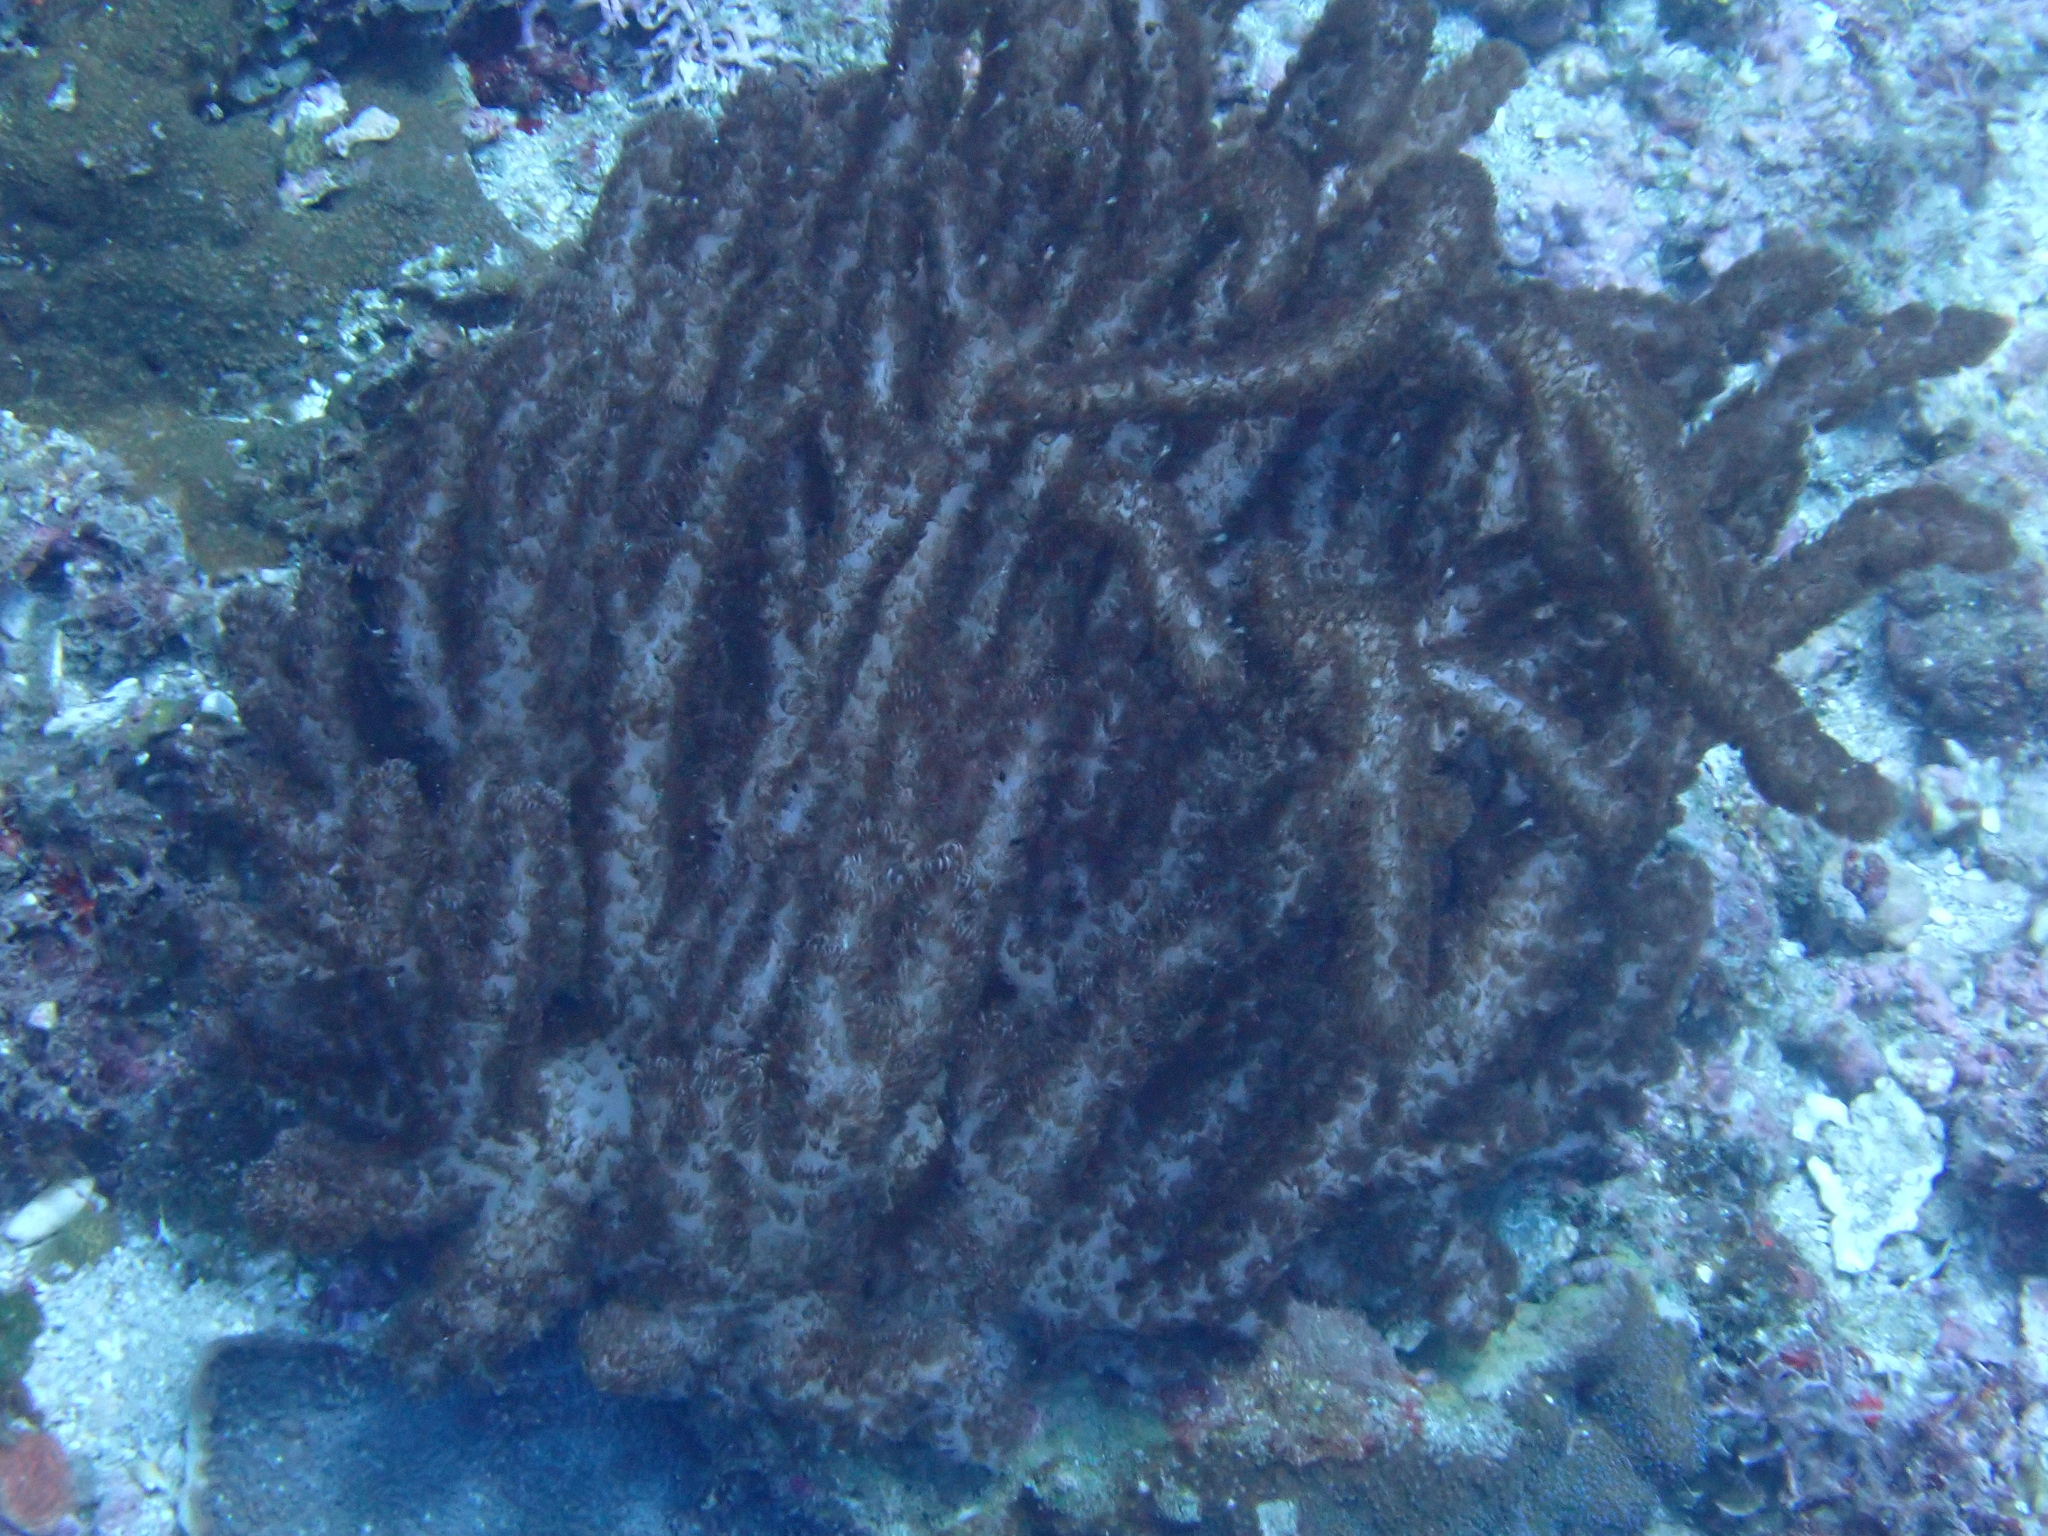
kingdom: Animalia
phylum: Cnidaria
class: Anthozoa
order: Malacalcyonacea
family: Cladiellidae
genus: Aldersladum
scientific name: Aldersladum jengi
